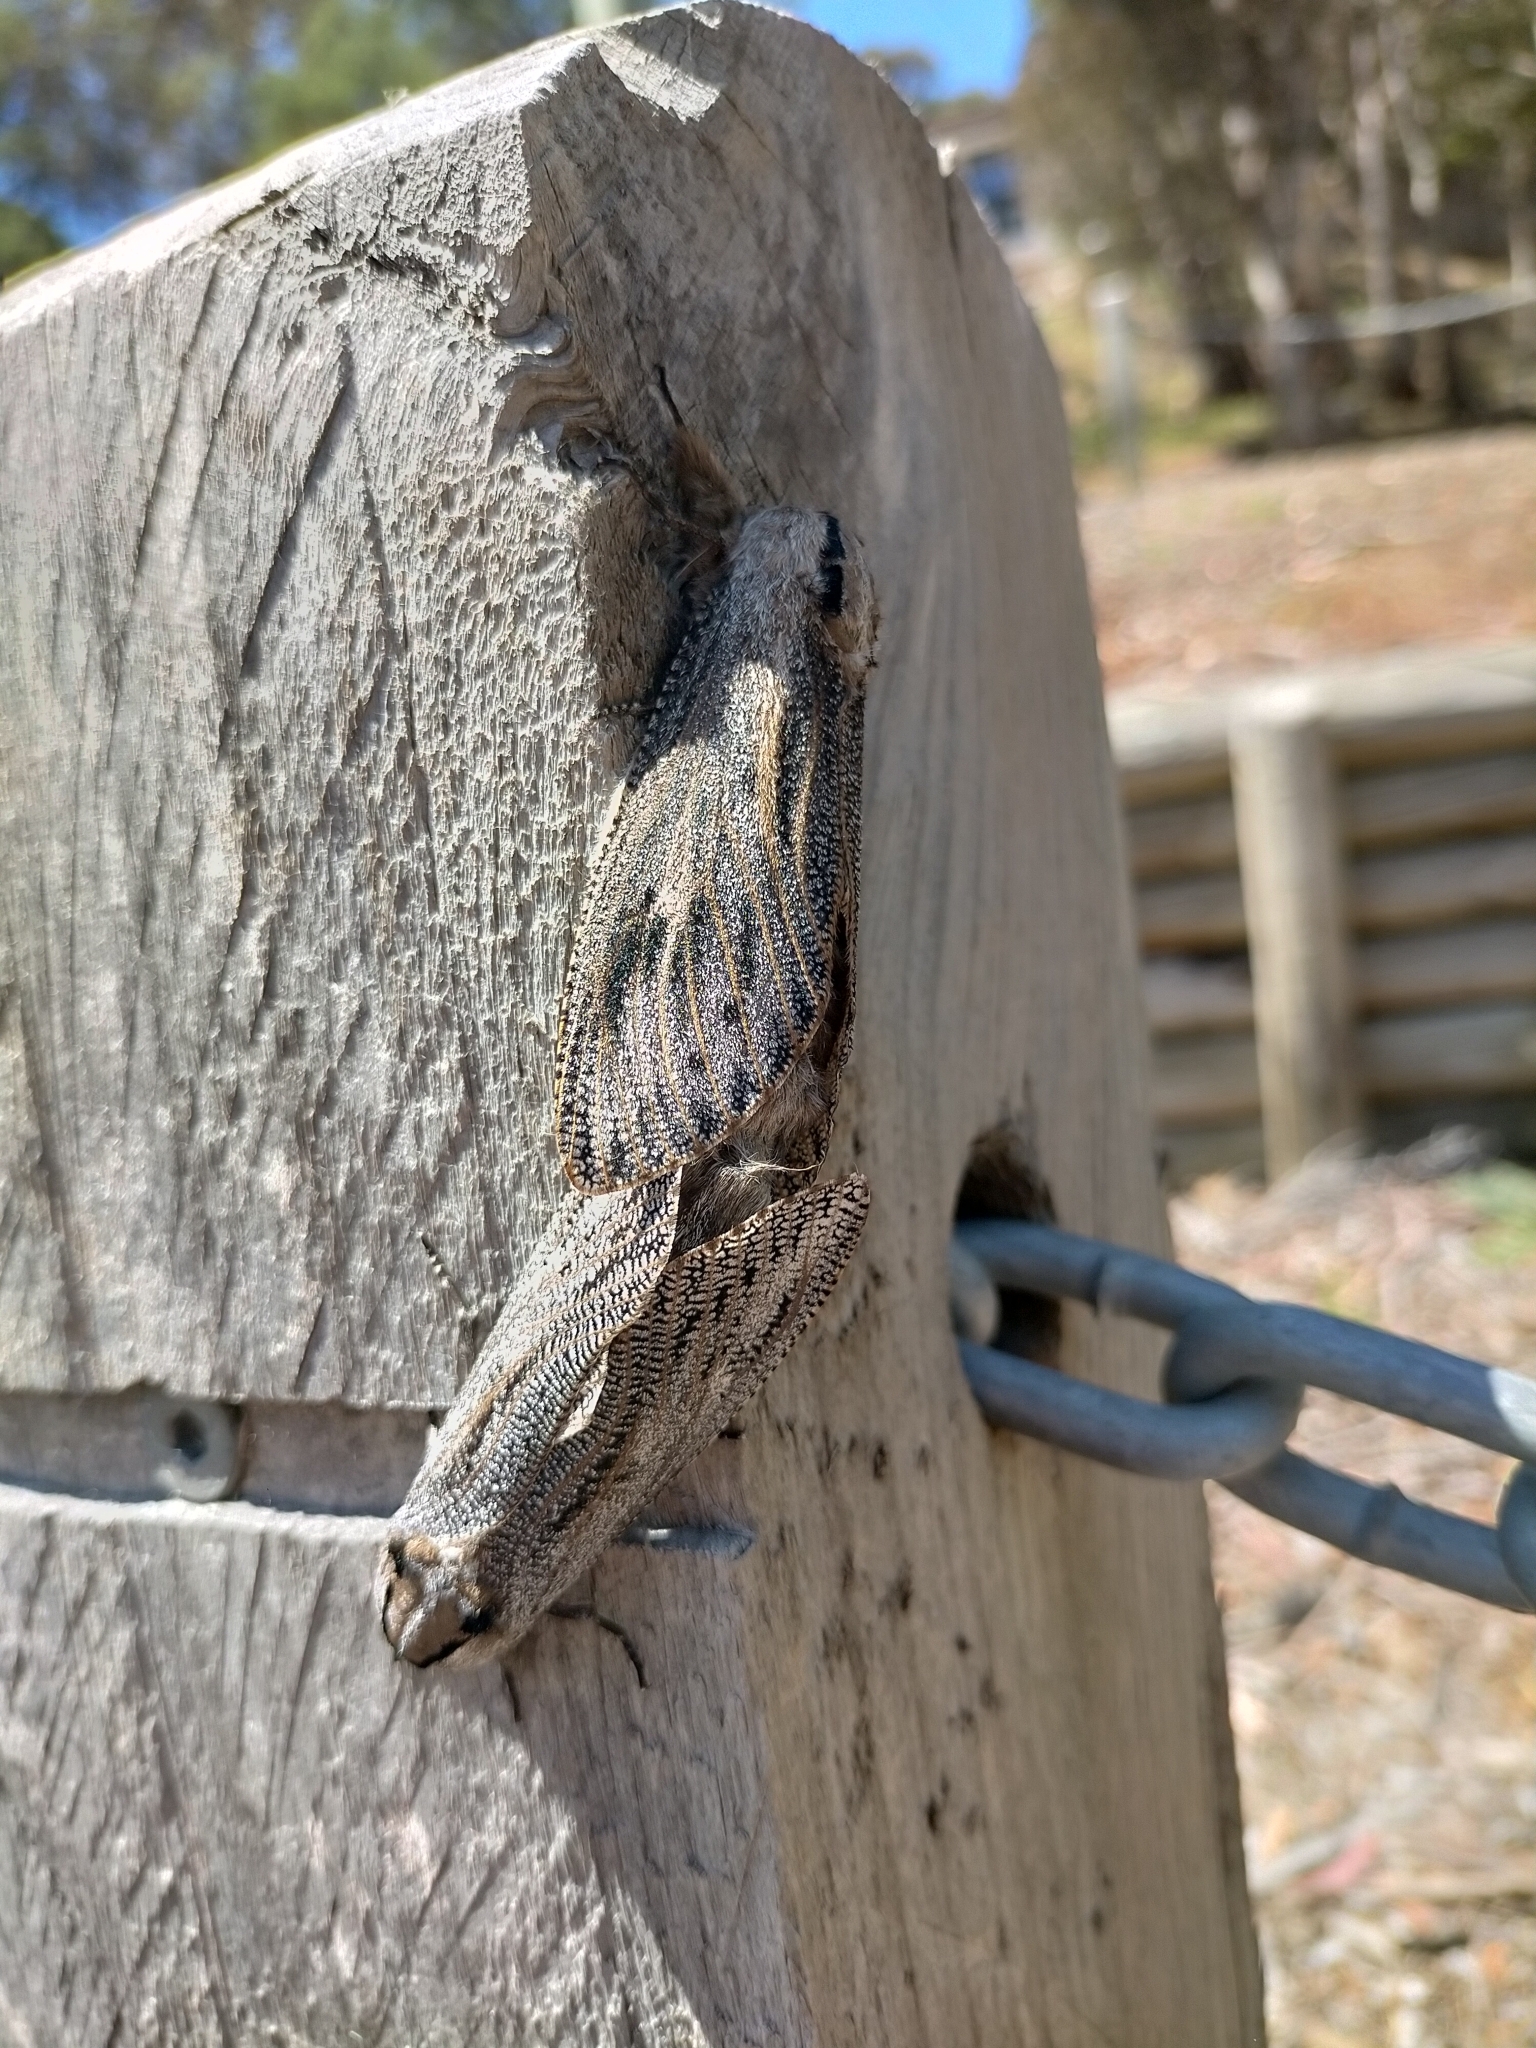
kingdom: Animalia
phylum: Arthropoda
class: Insecta
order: Lepidoptera
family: Cossidae
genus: Endoxyla
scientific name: Endoxyla liturata
